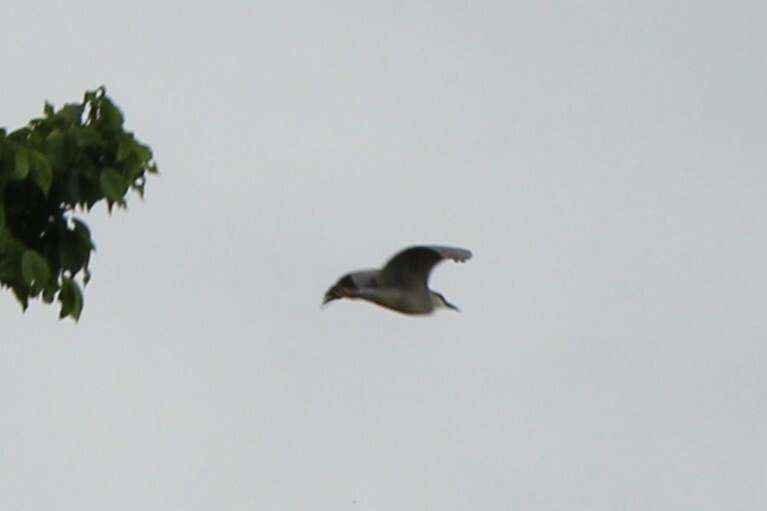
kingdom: Animalia
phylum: Chordata
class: Aves
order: Pelecaniformes
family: Ardeidae
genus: Nycticorax
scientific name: Nycticorax nycticorax
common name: Black-crowned night heron
